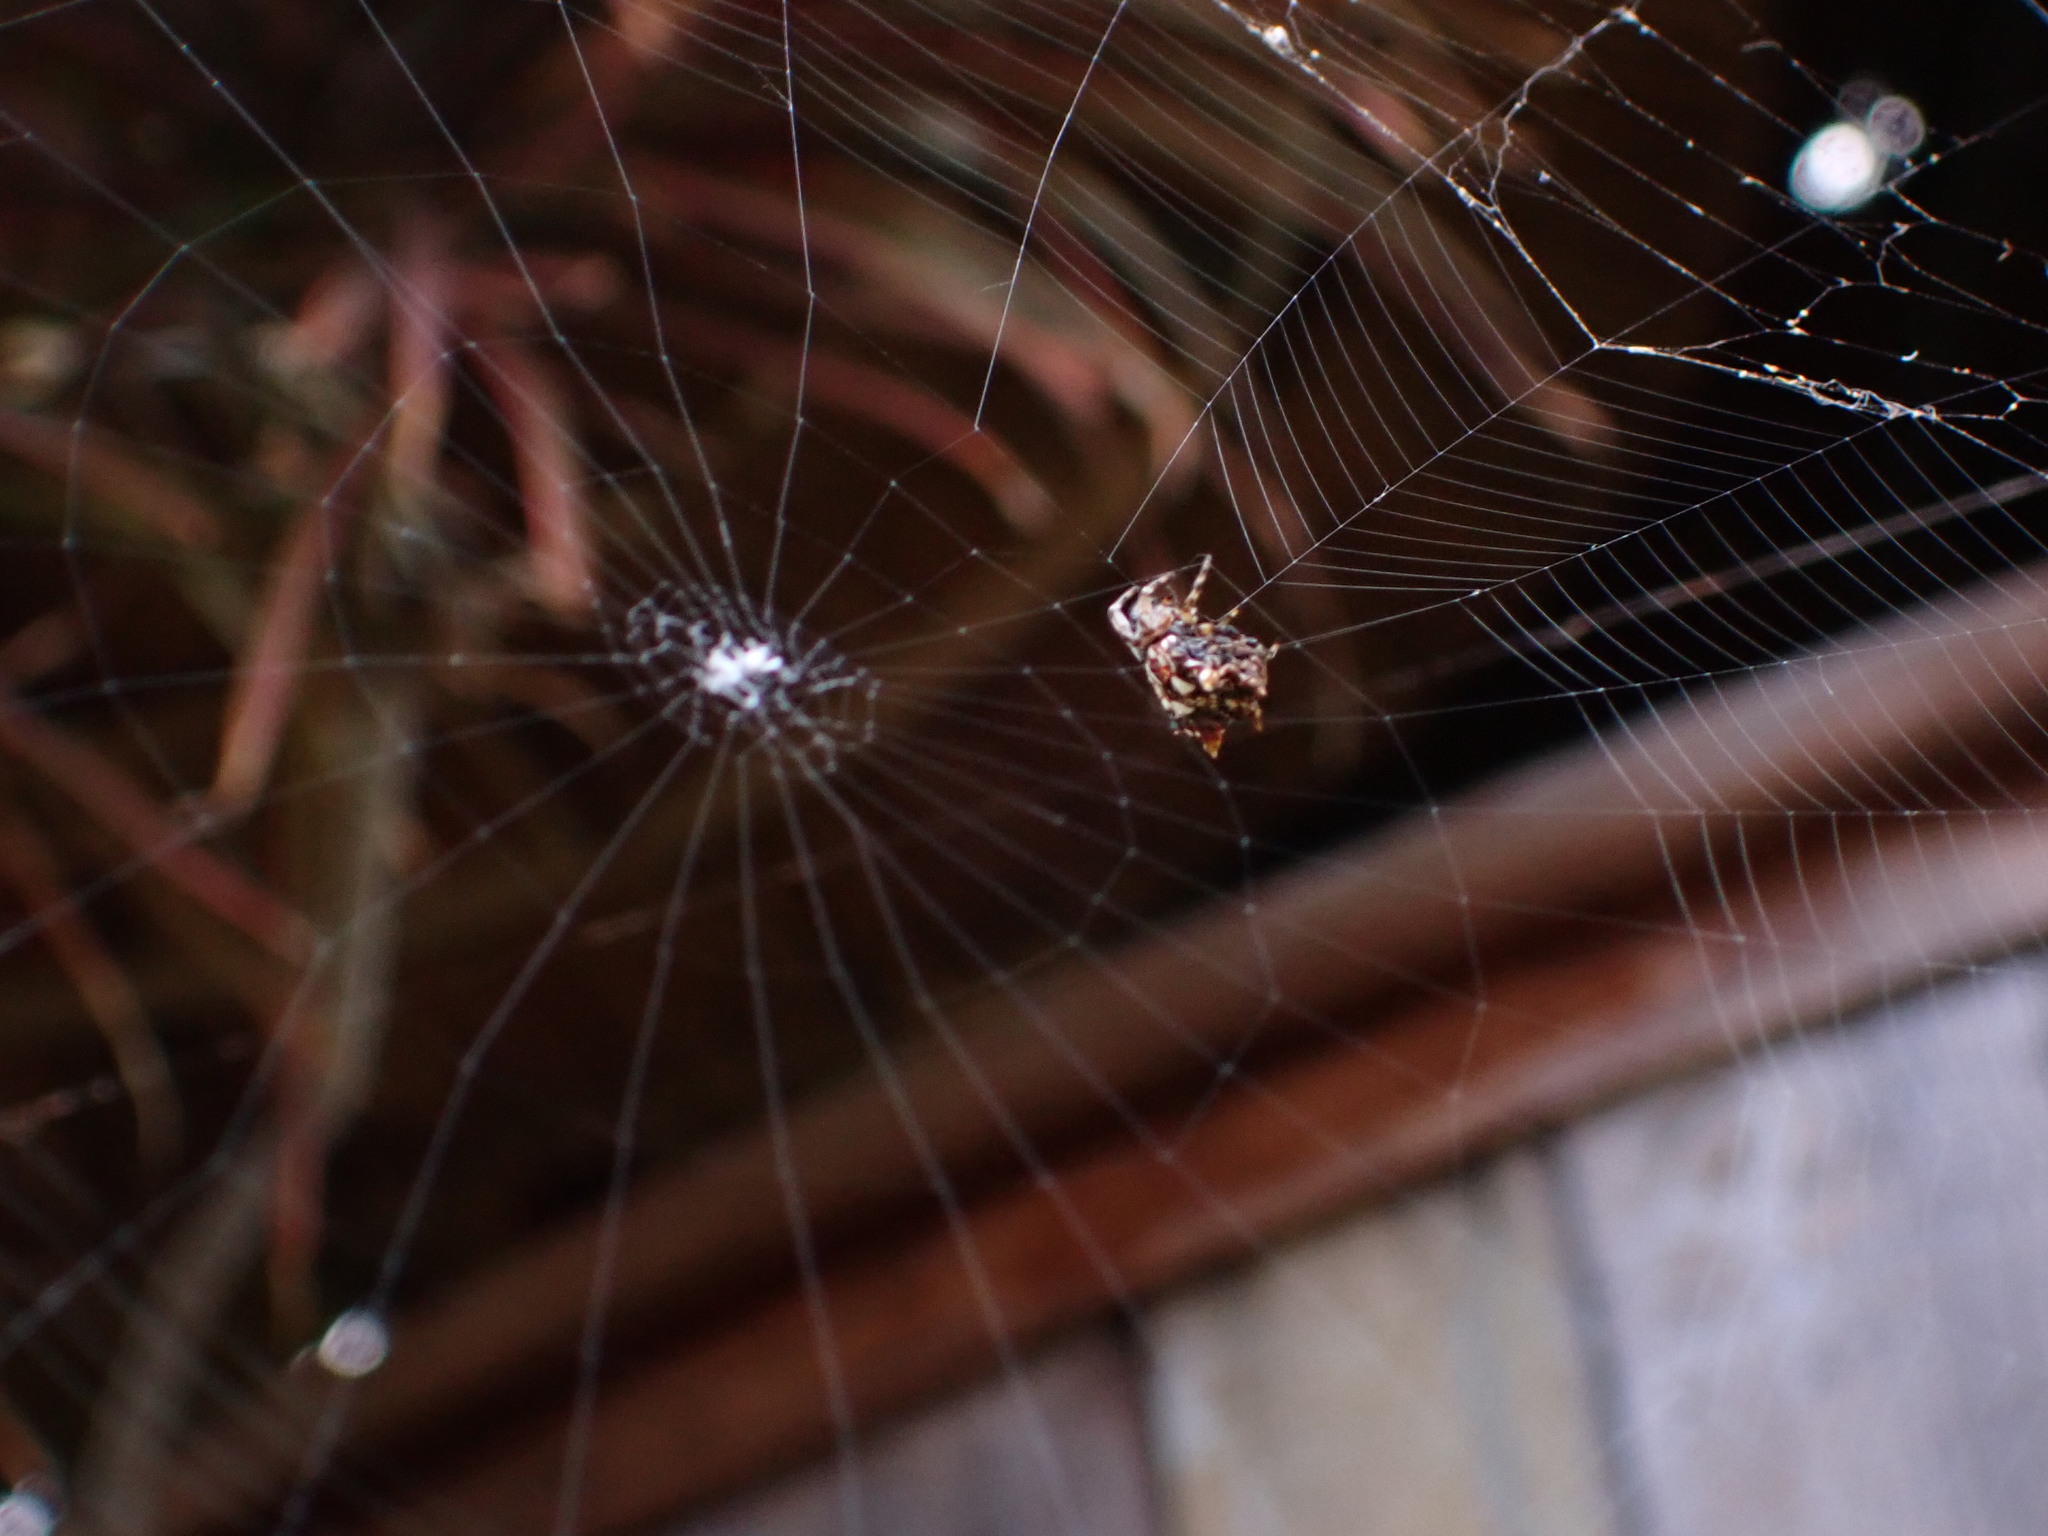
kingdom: Animalia
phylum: Arthropoda
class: Arachnida
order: Araneae
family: Araneidae
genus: Thelacantha
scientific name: Thelacantha brevispina
